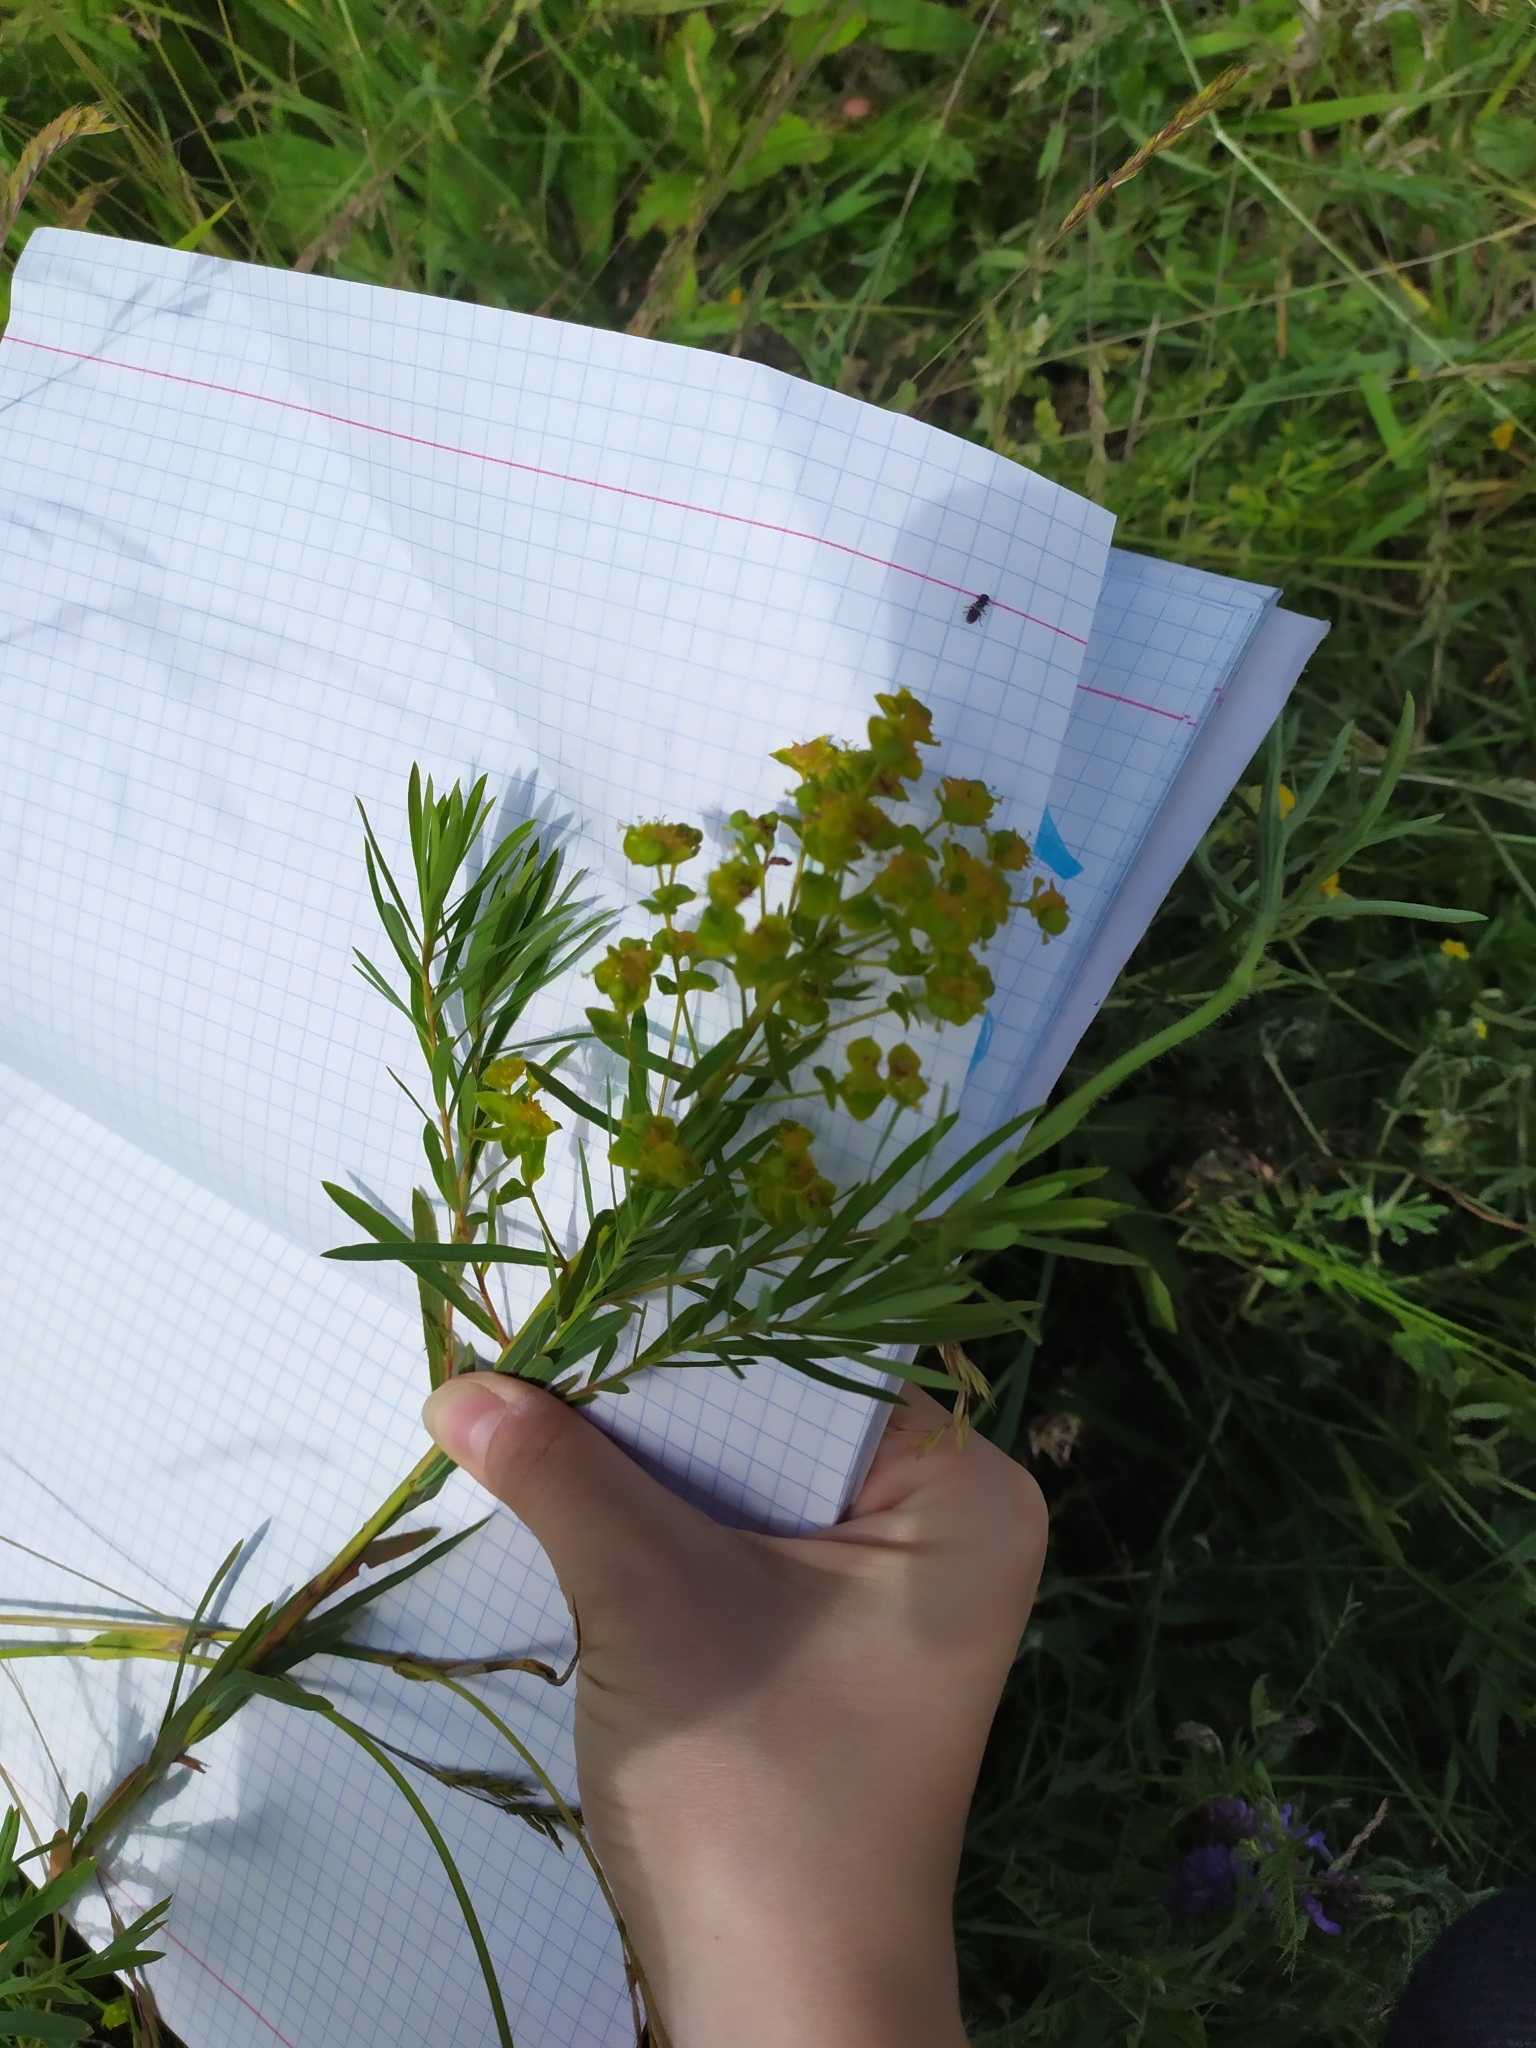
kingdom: Plantae
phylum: Tracheophyta
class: Magnoliopsida
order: Malpighiales
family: Euphorbiaceae
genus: Euphorbia
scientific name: Euphorbia virgata
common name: Leafy spurge
